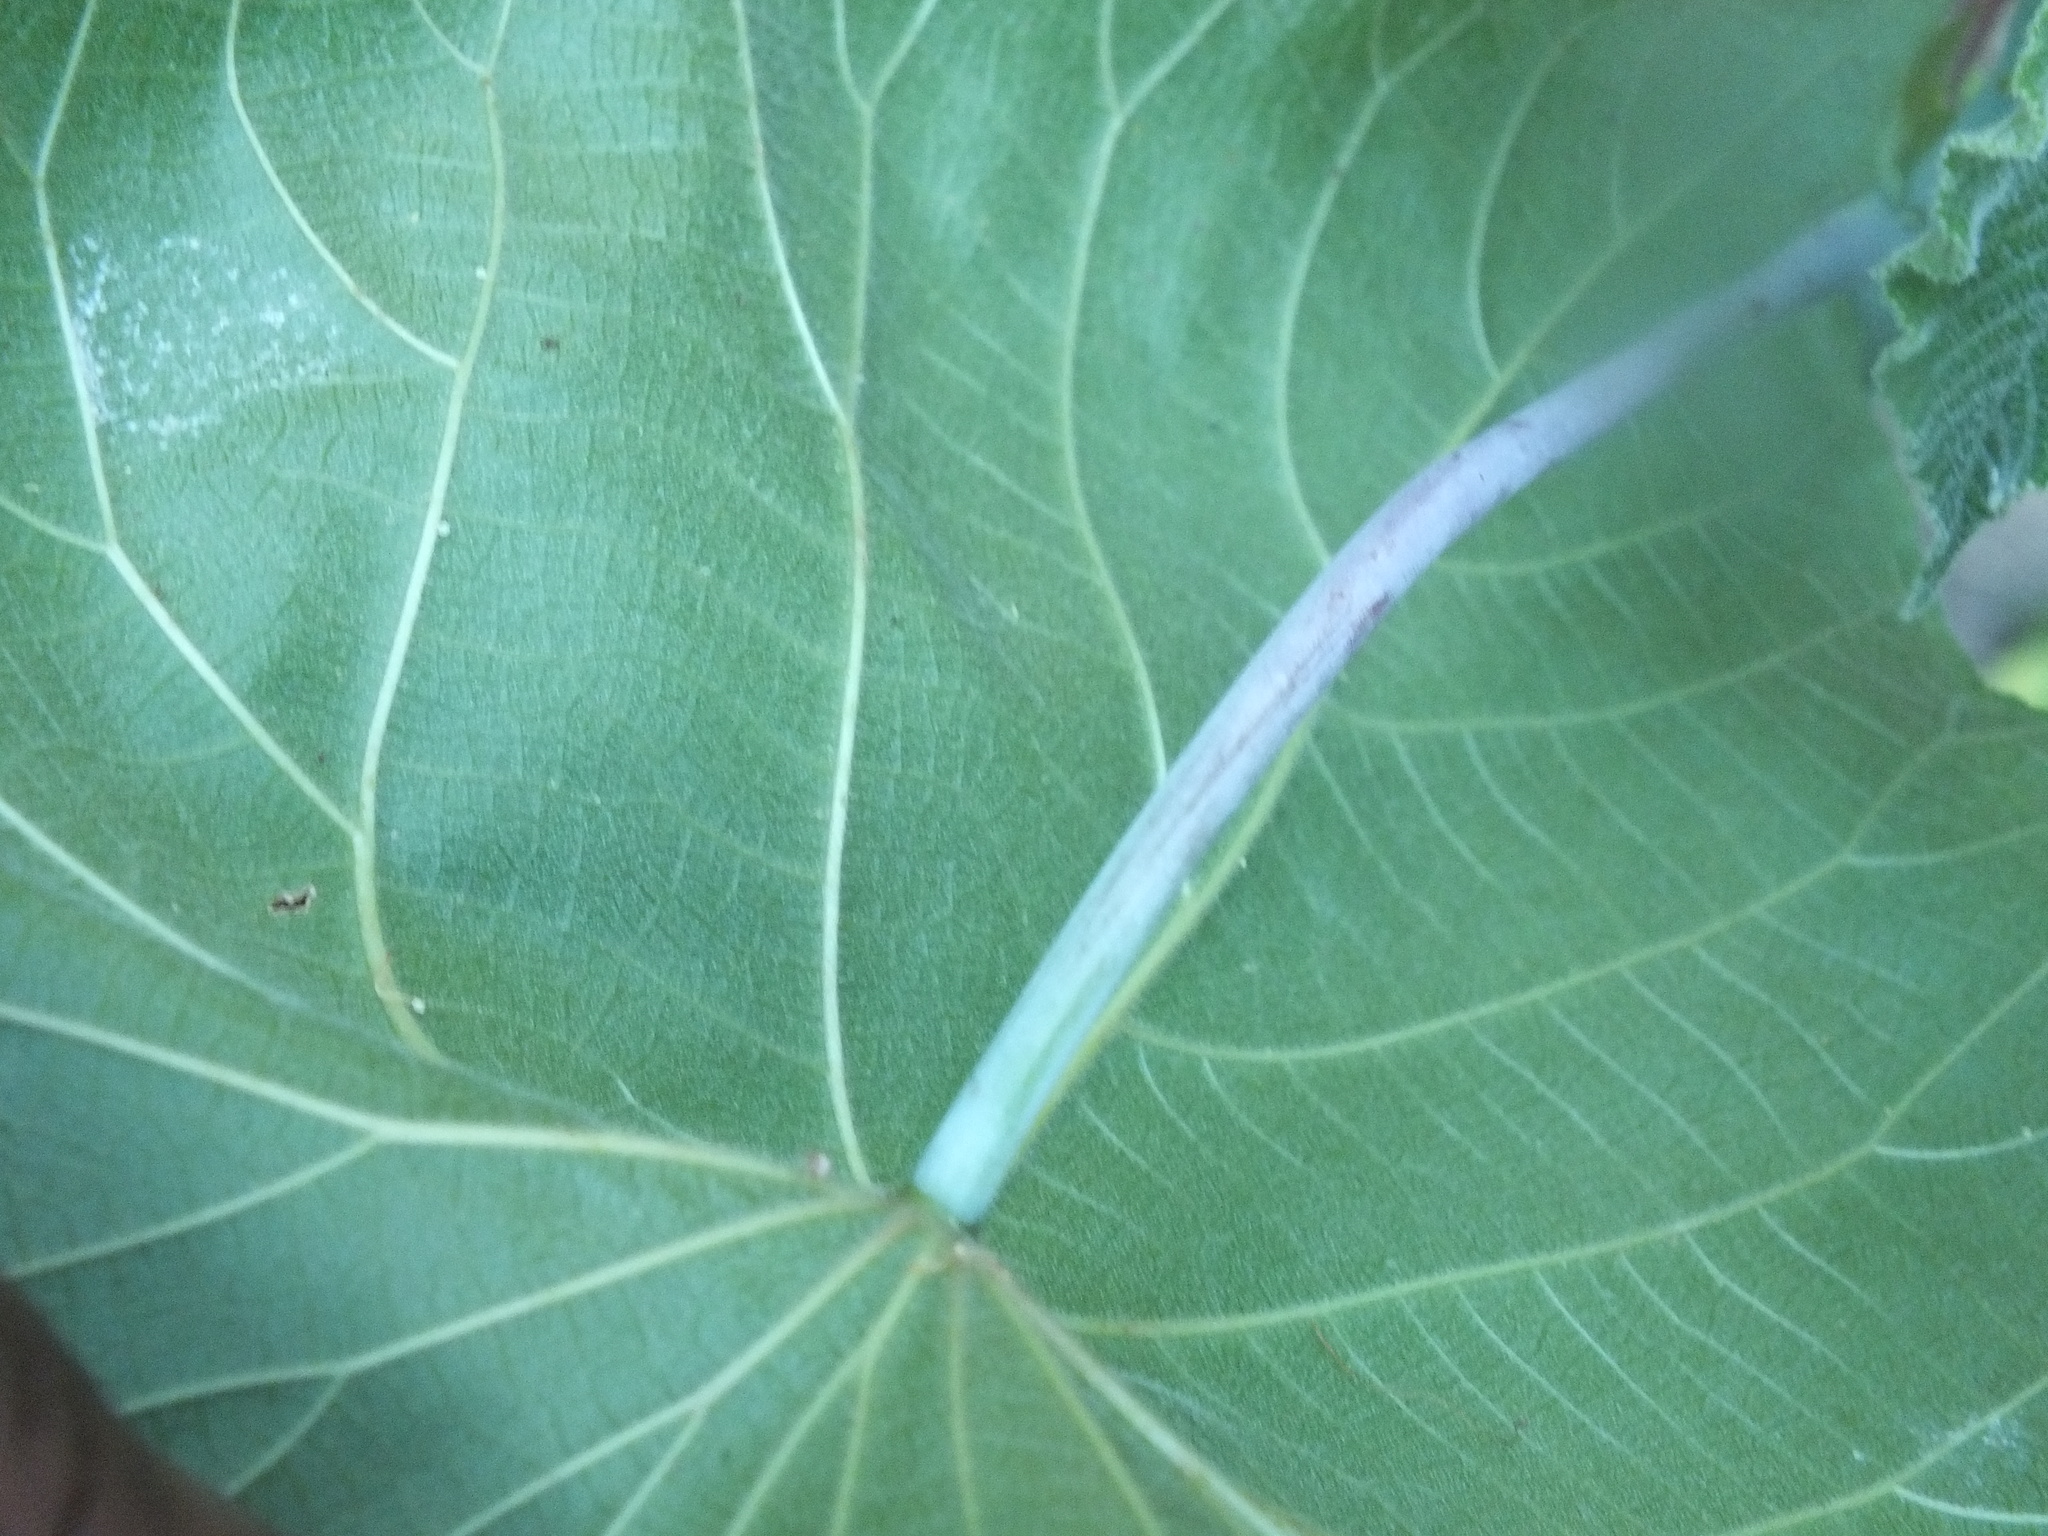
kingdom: Plantae
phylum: Tracheophyta
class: Magnoliopsida
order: Malpighiales
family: Euphorbiaceae
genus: Macaranga
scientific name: Macaranga tanarius
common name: Parasol leaf tree
